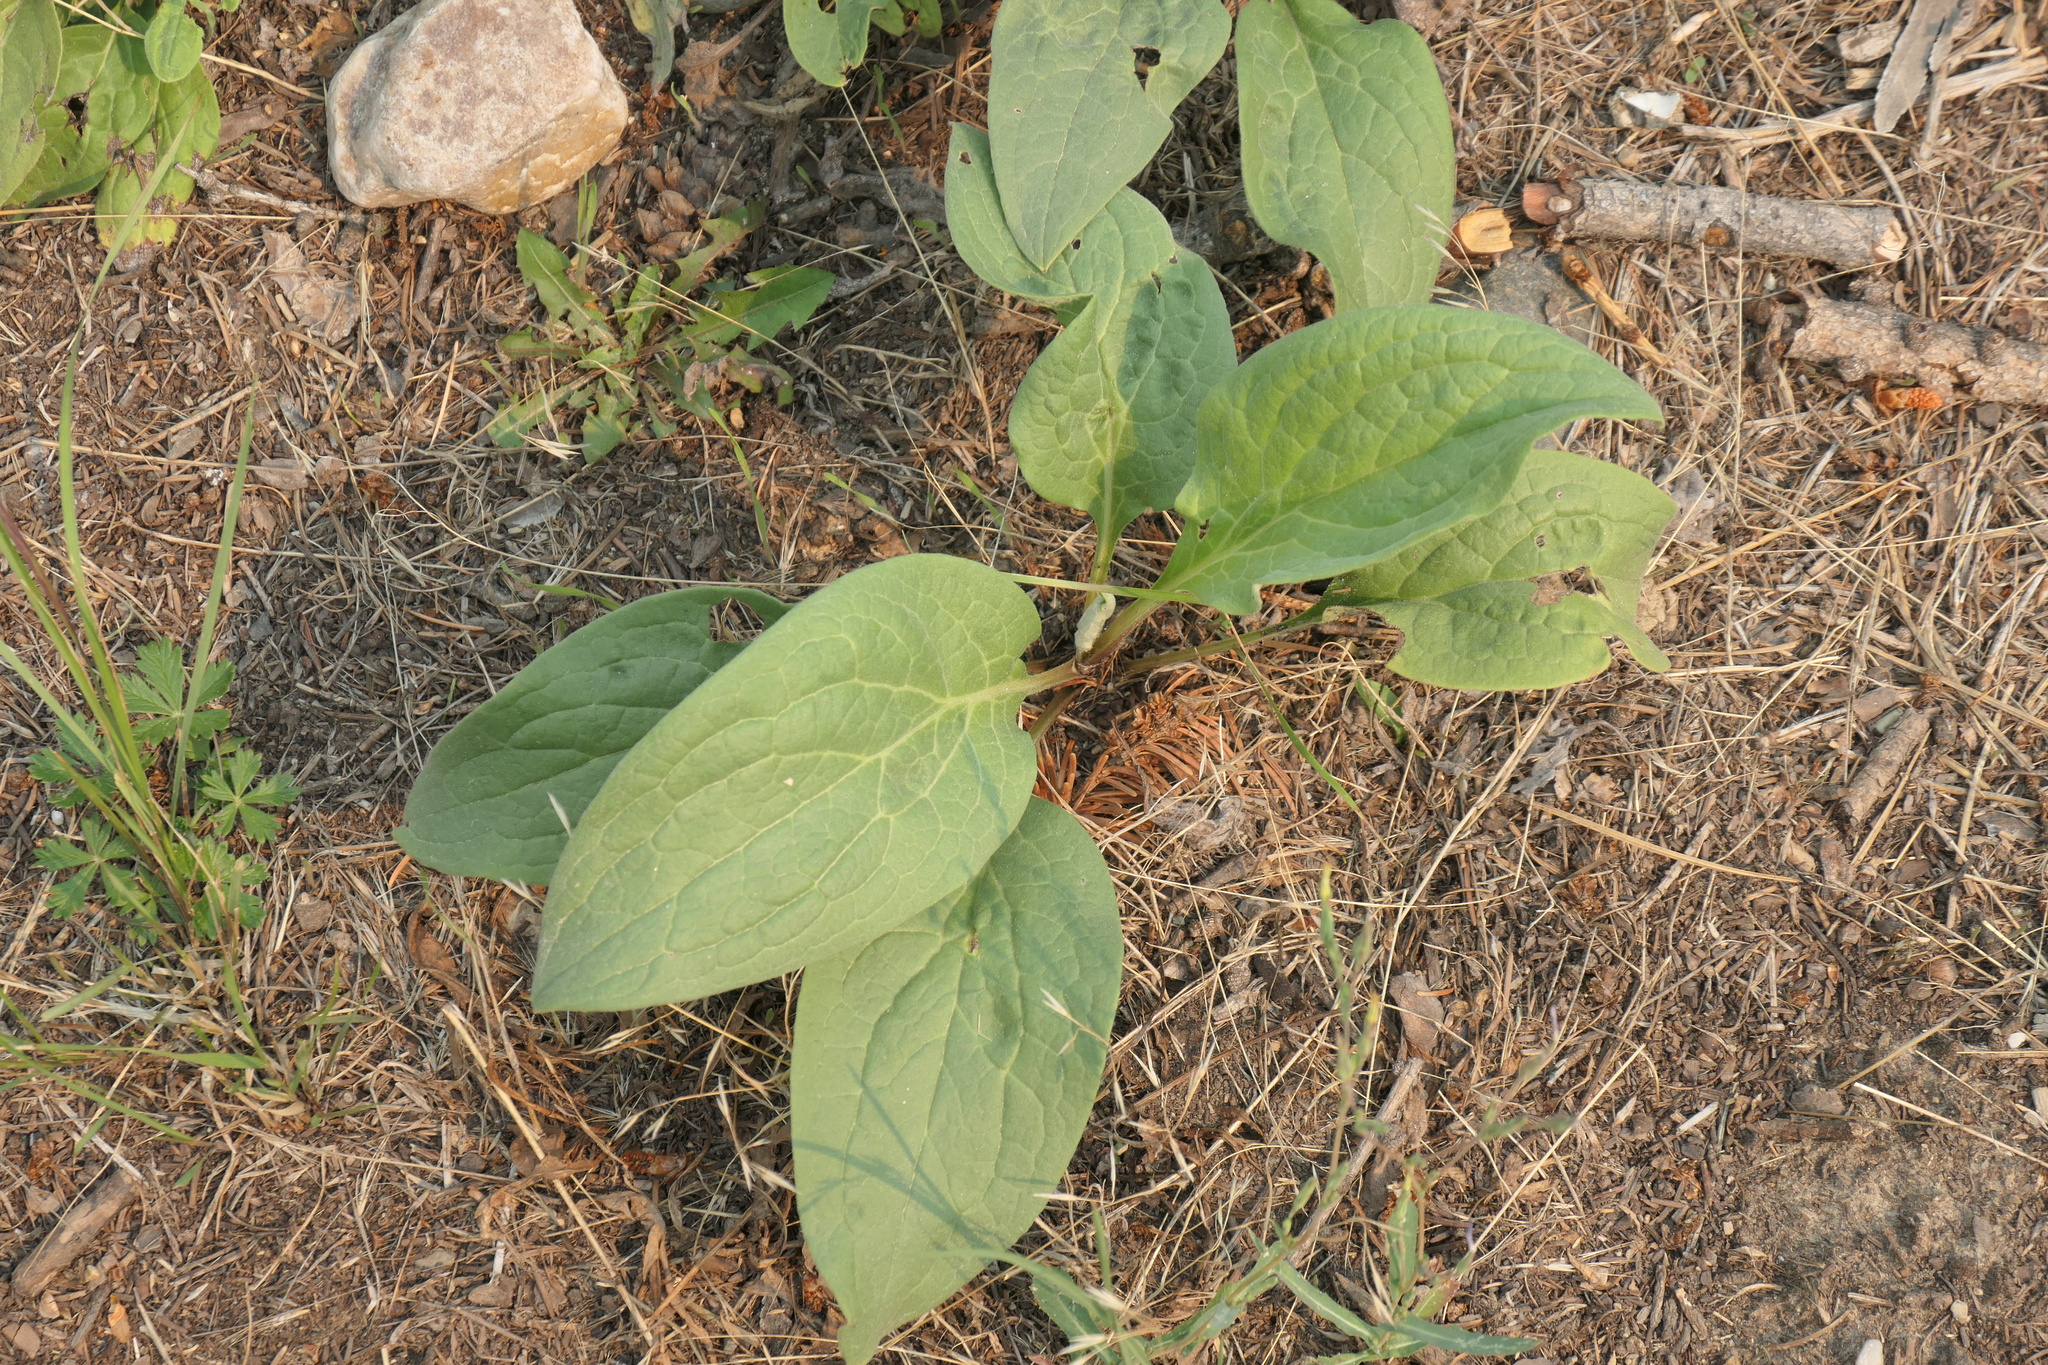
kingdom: Plantae
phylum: Tracheophyta
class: Magnoliopsida
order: Boraginales
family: Boraginaceae
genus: Cynoglossum
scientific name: Cynoglossum officinale
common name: Hound's-tongue
